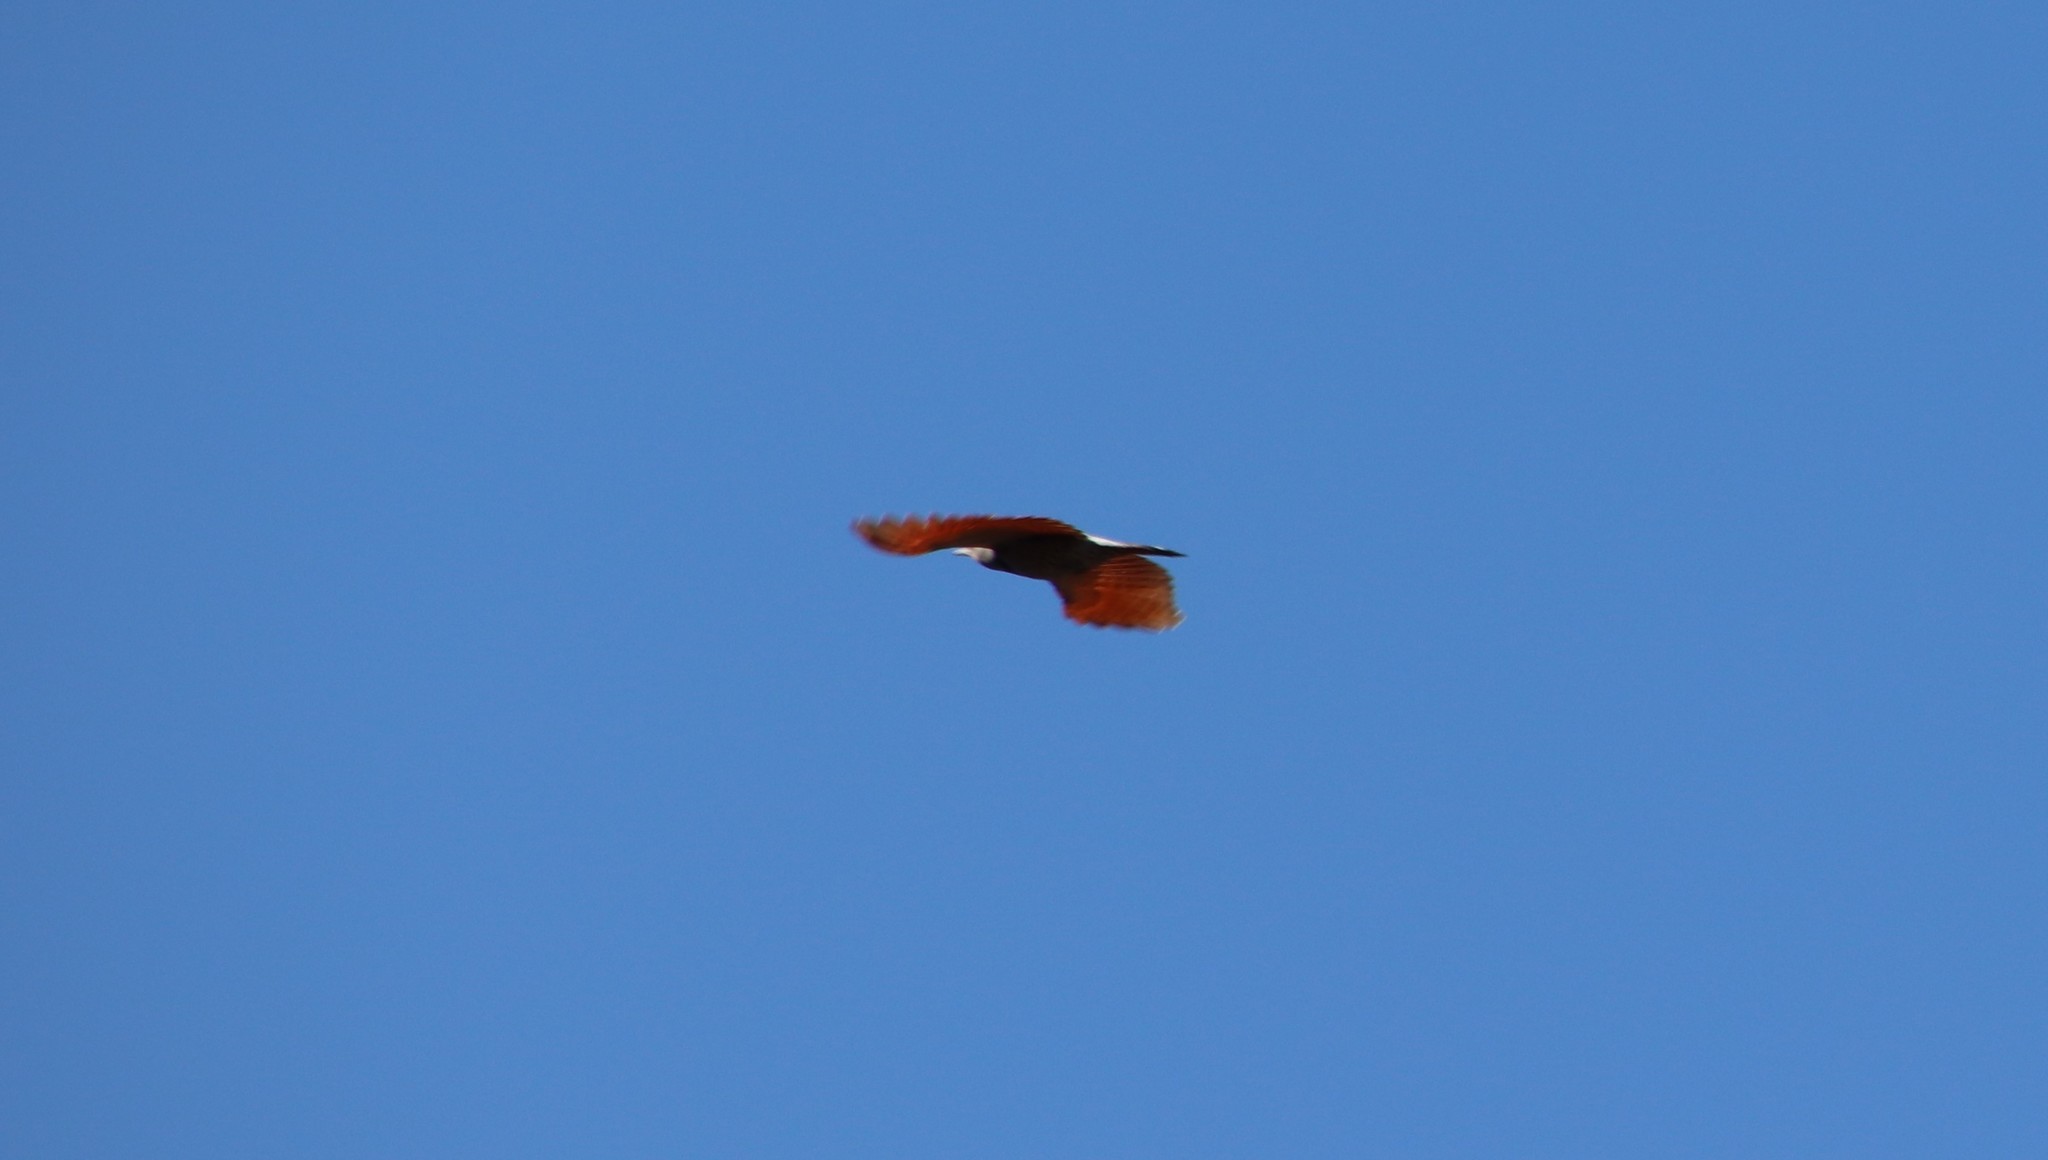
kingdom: Animalia
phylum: Chordata
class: Aves
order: Piciformes
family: Picidae
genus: Colaptes
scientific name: Colaptes auratus
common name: Northern flicker
